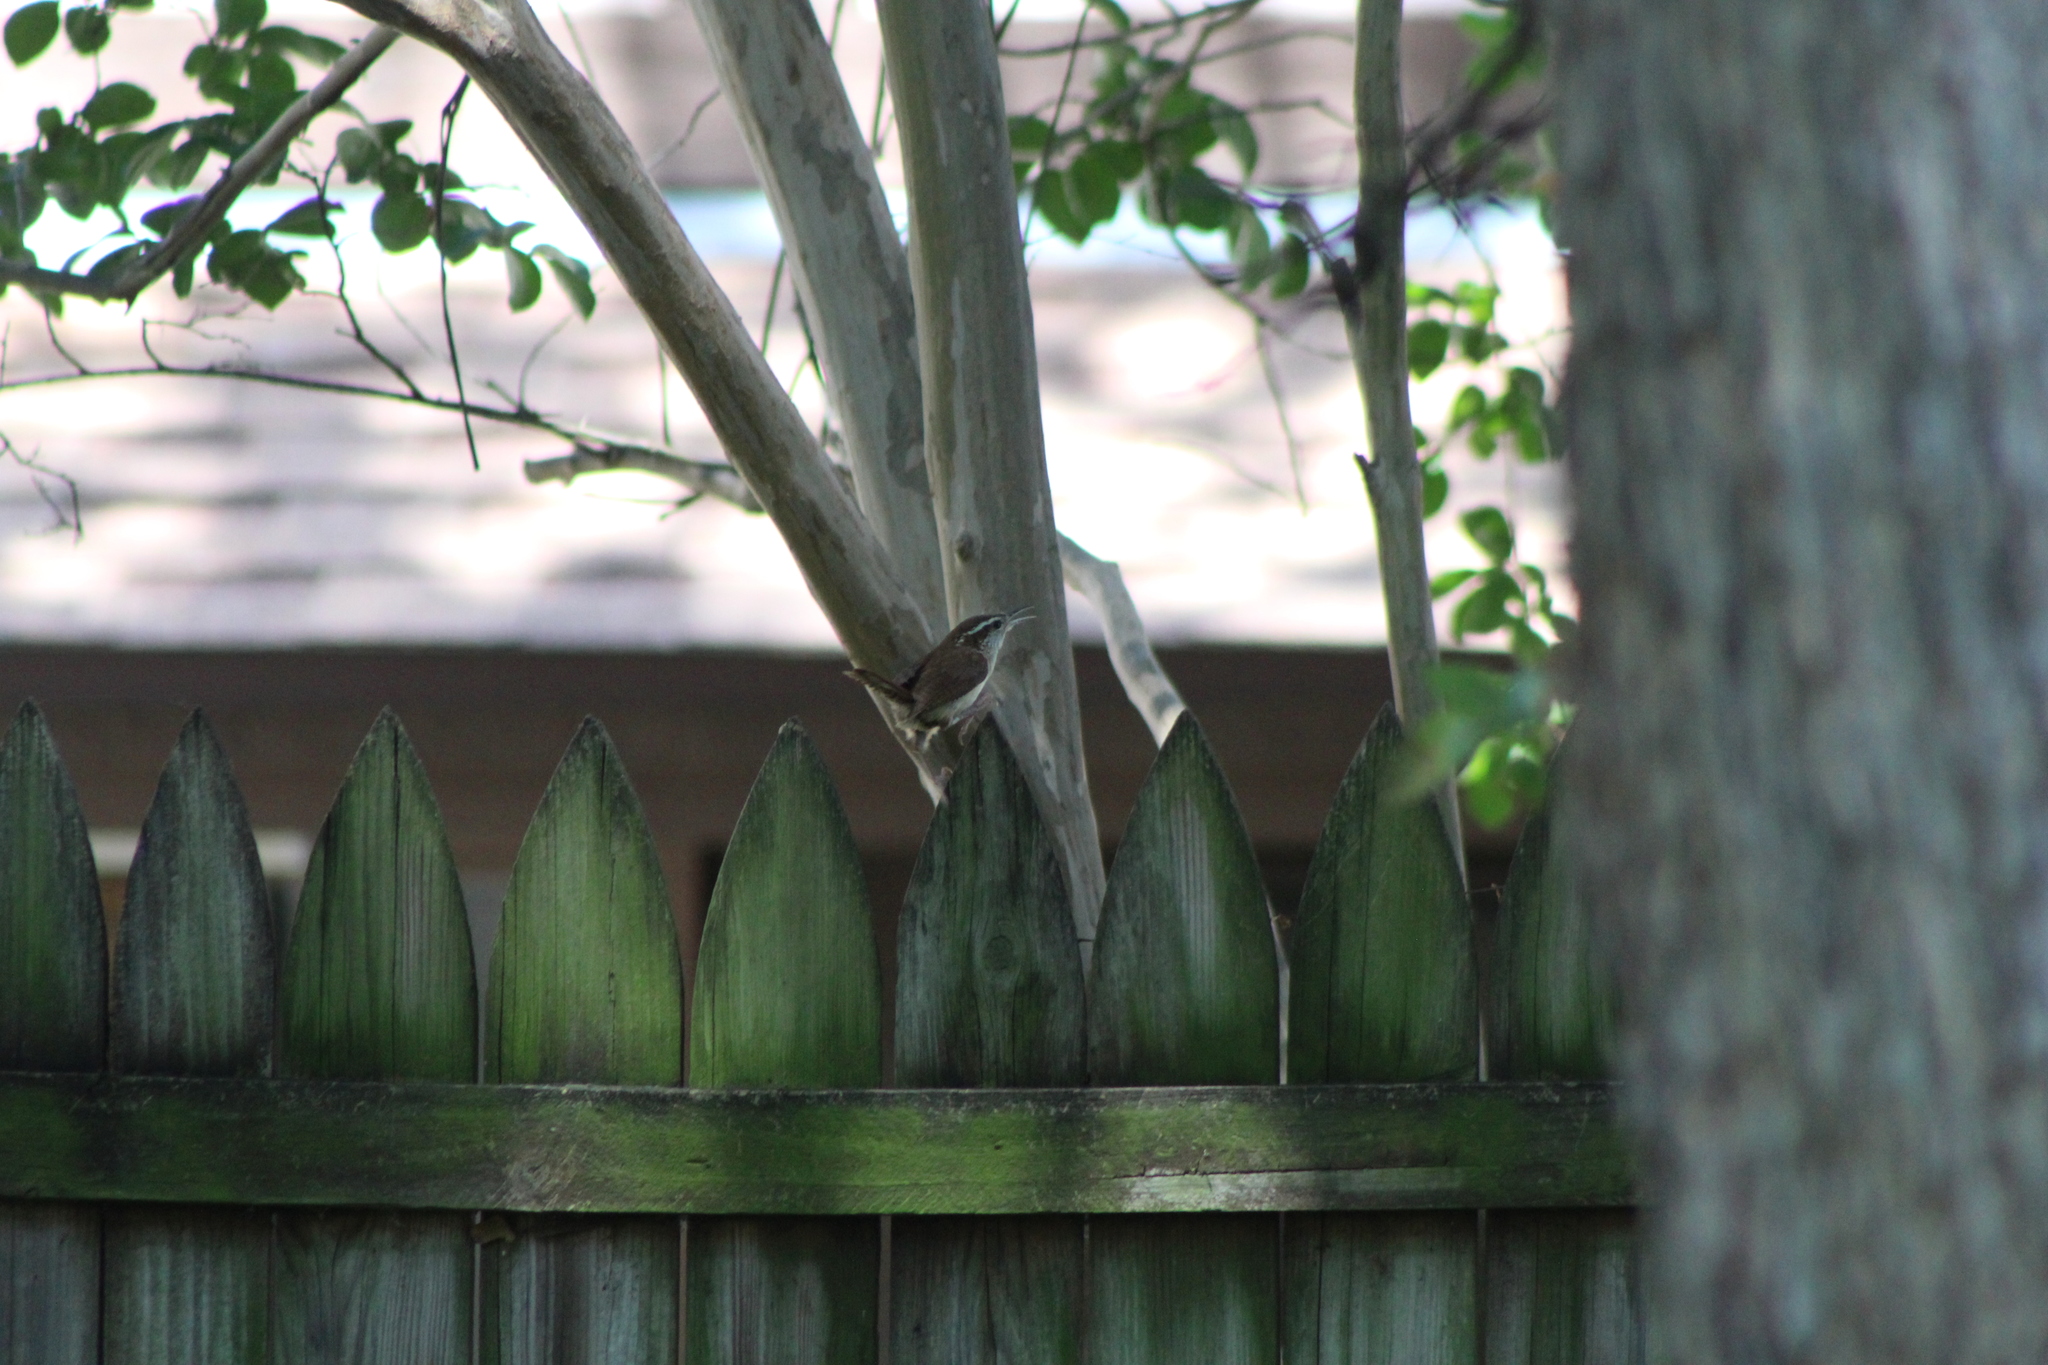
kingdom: Animalia
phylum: Chordata
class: Aves
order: Passeriformes
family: Troglodytidae
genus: Thryothorus
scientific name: Thryothorus ludovicianus
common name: Carolina wren
